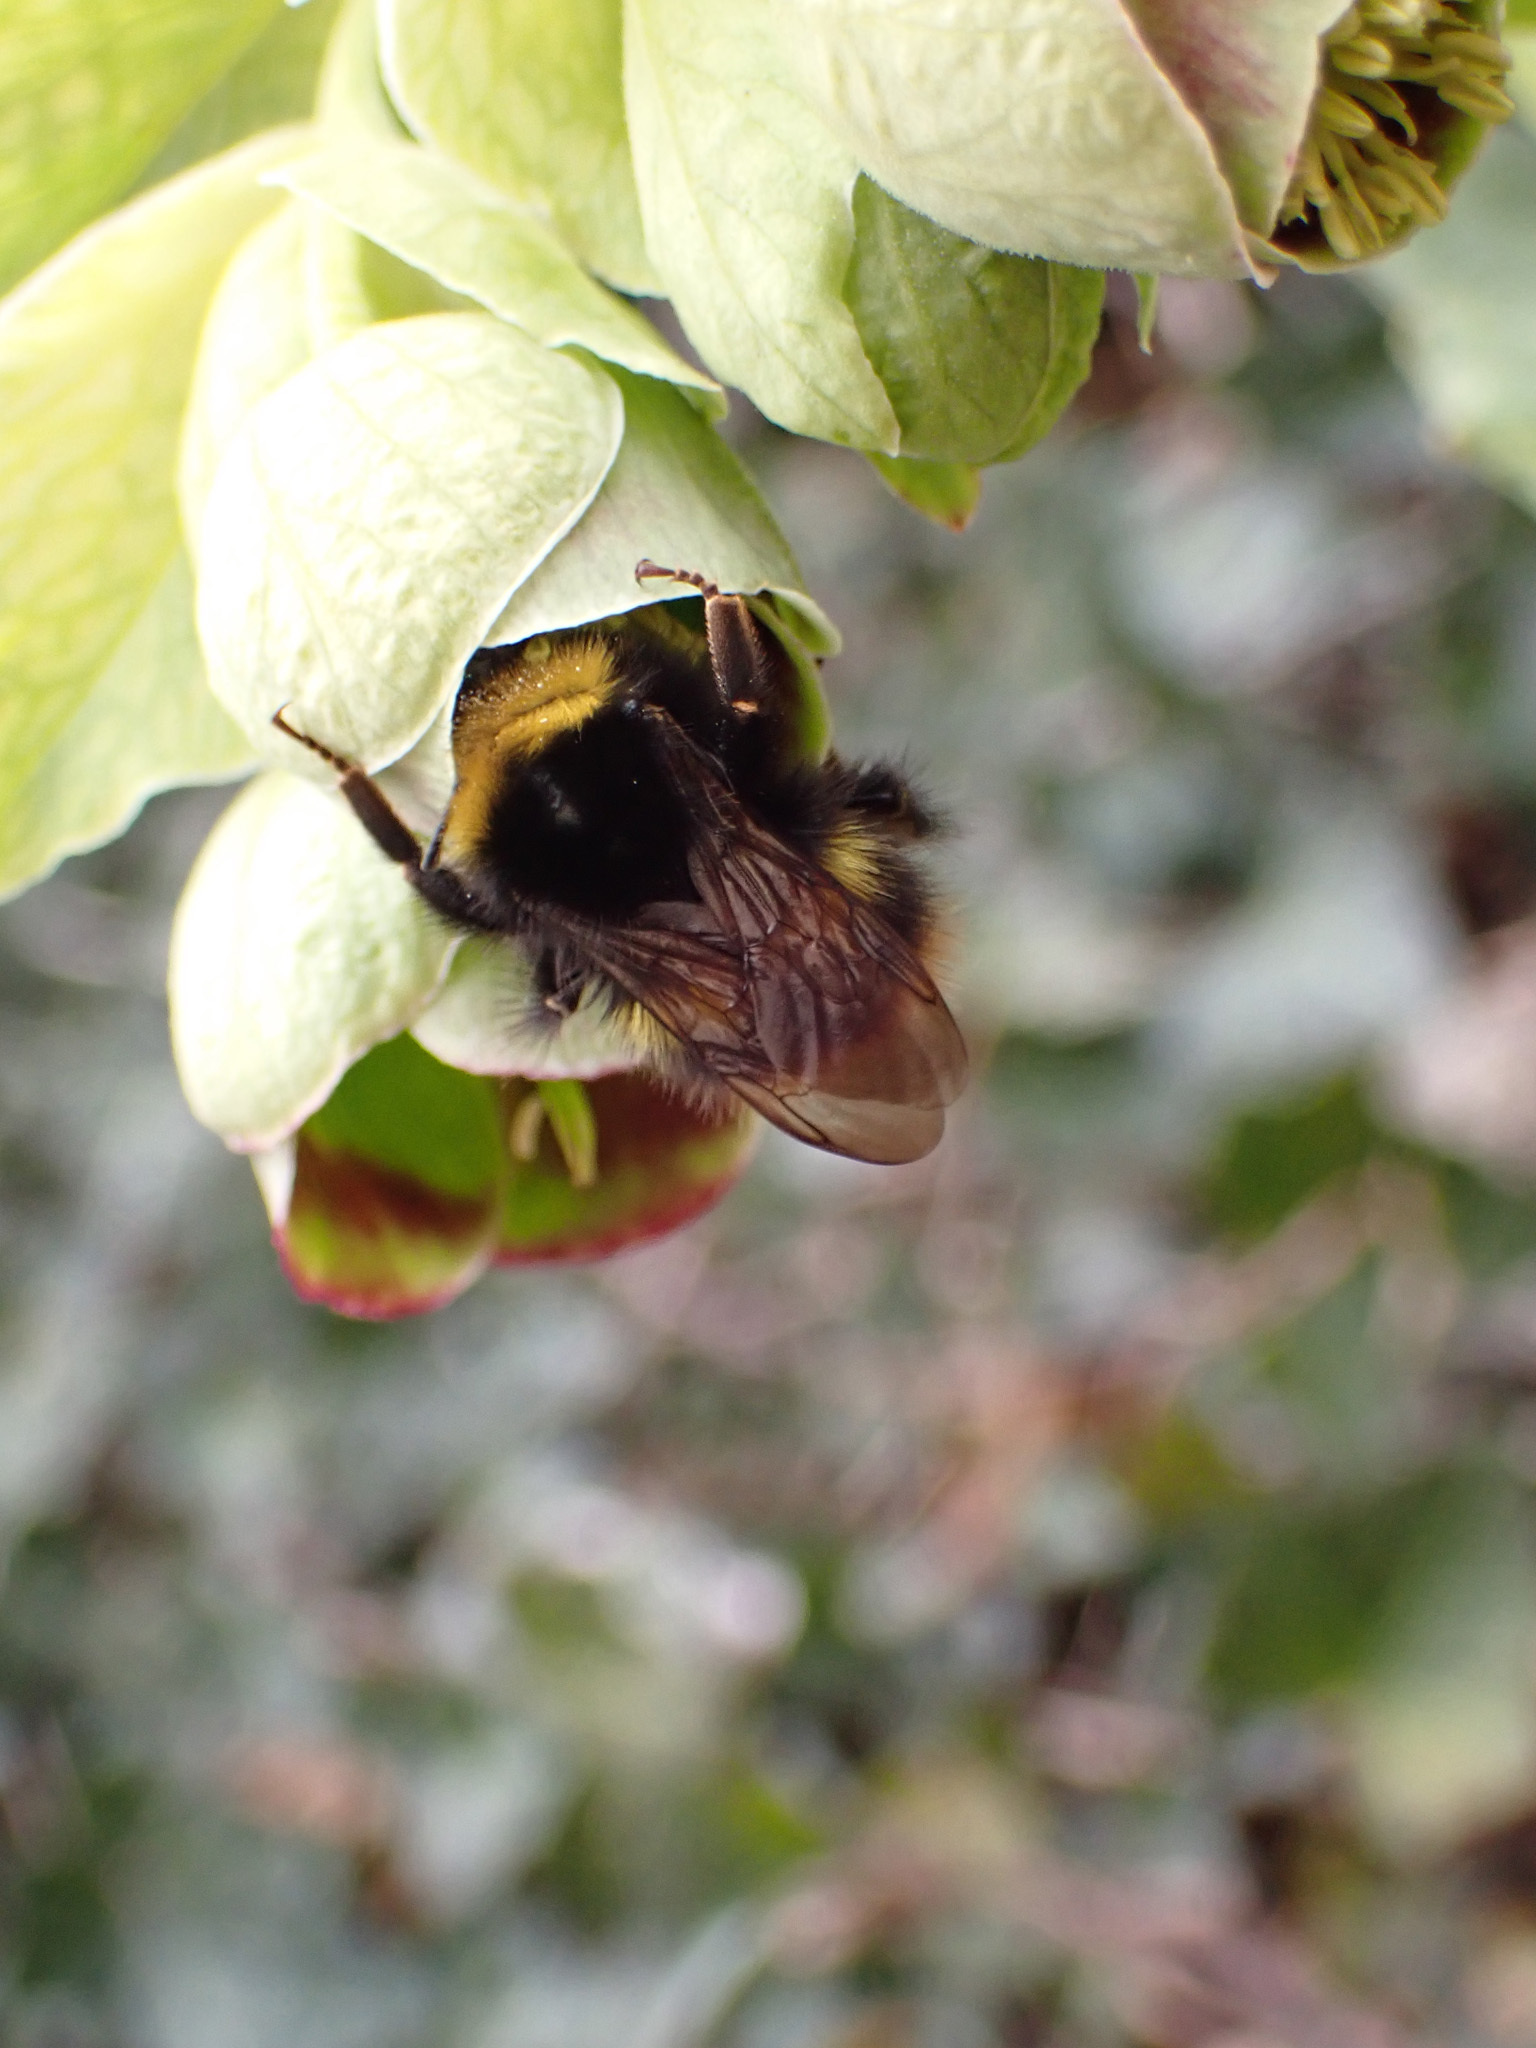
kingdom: Animalia
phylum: Arthropoda
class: Insecta
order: Hymenoptera
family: Apidae
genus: Bombus
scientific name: Bombus pratorum
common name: Early humble-bee
